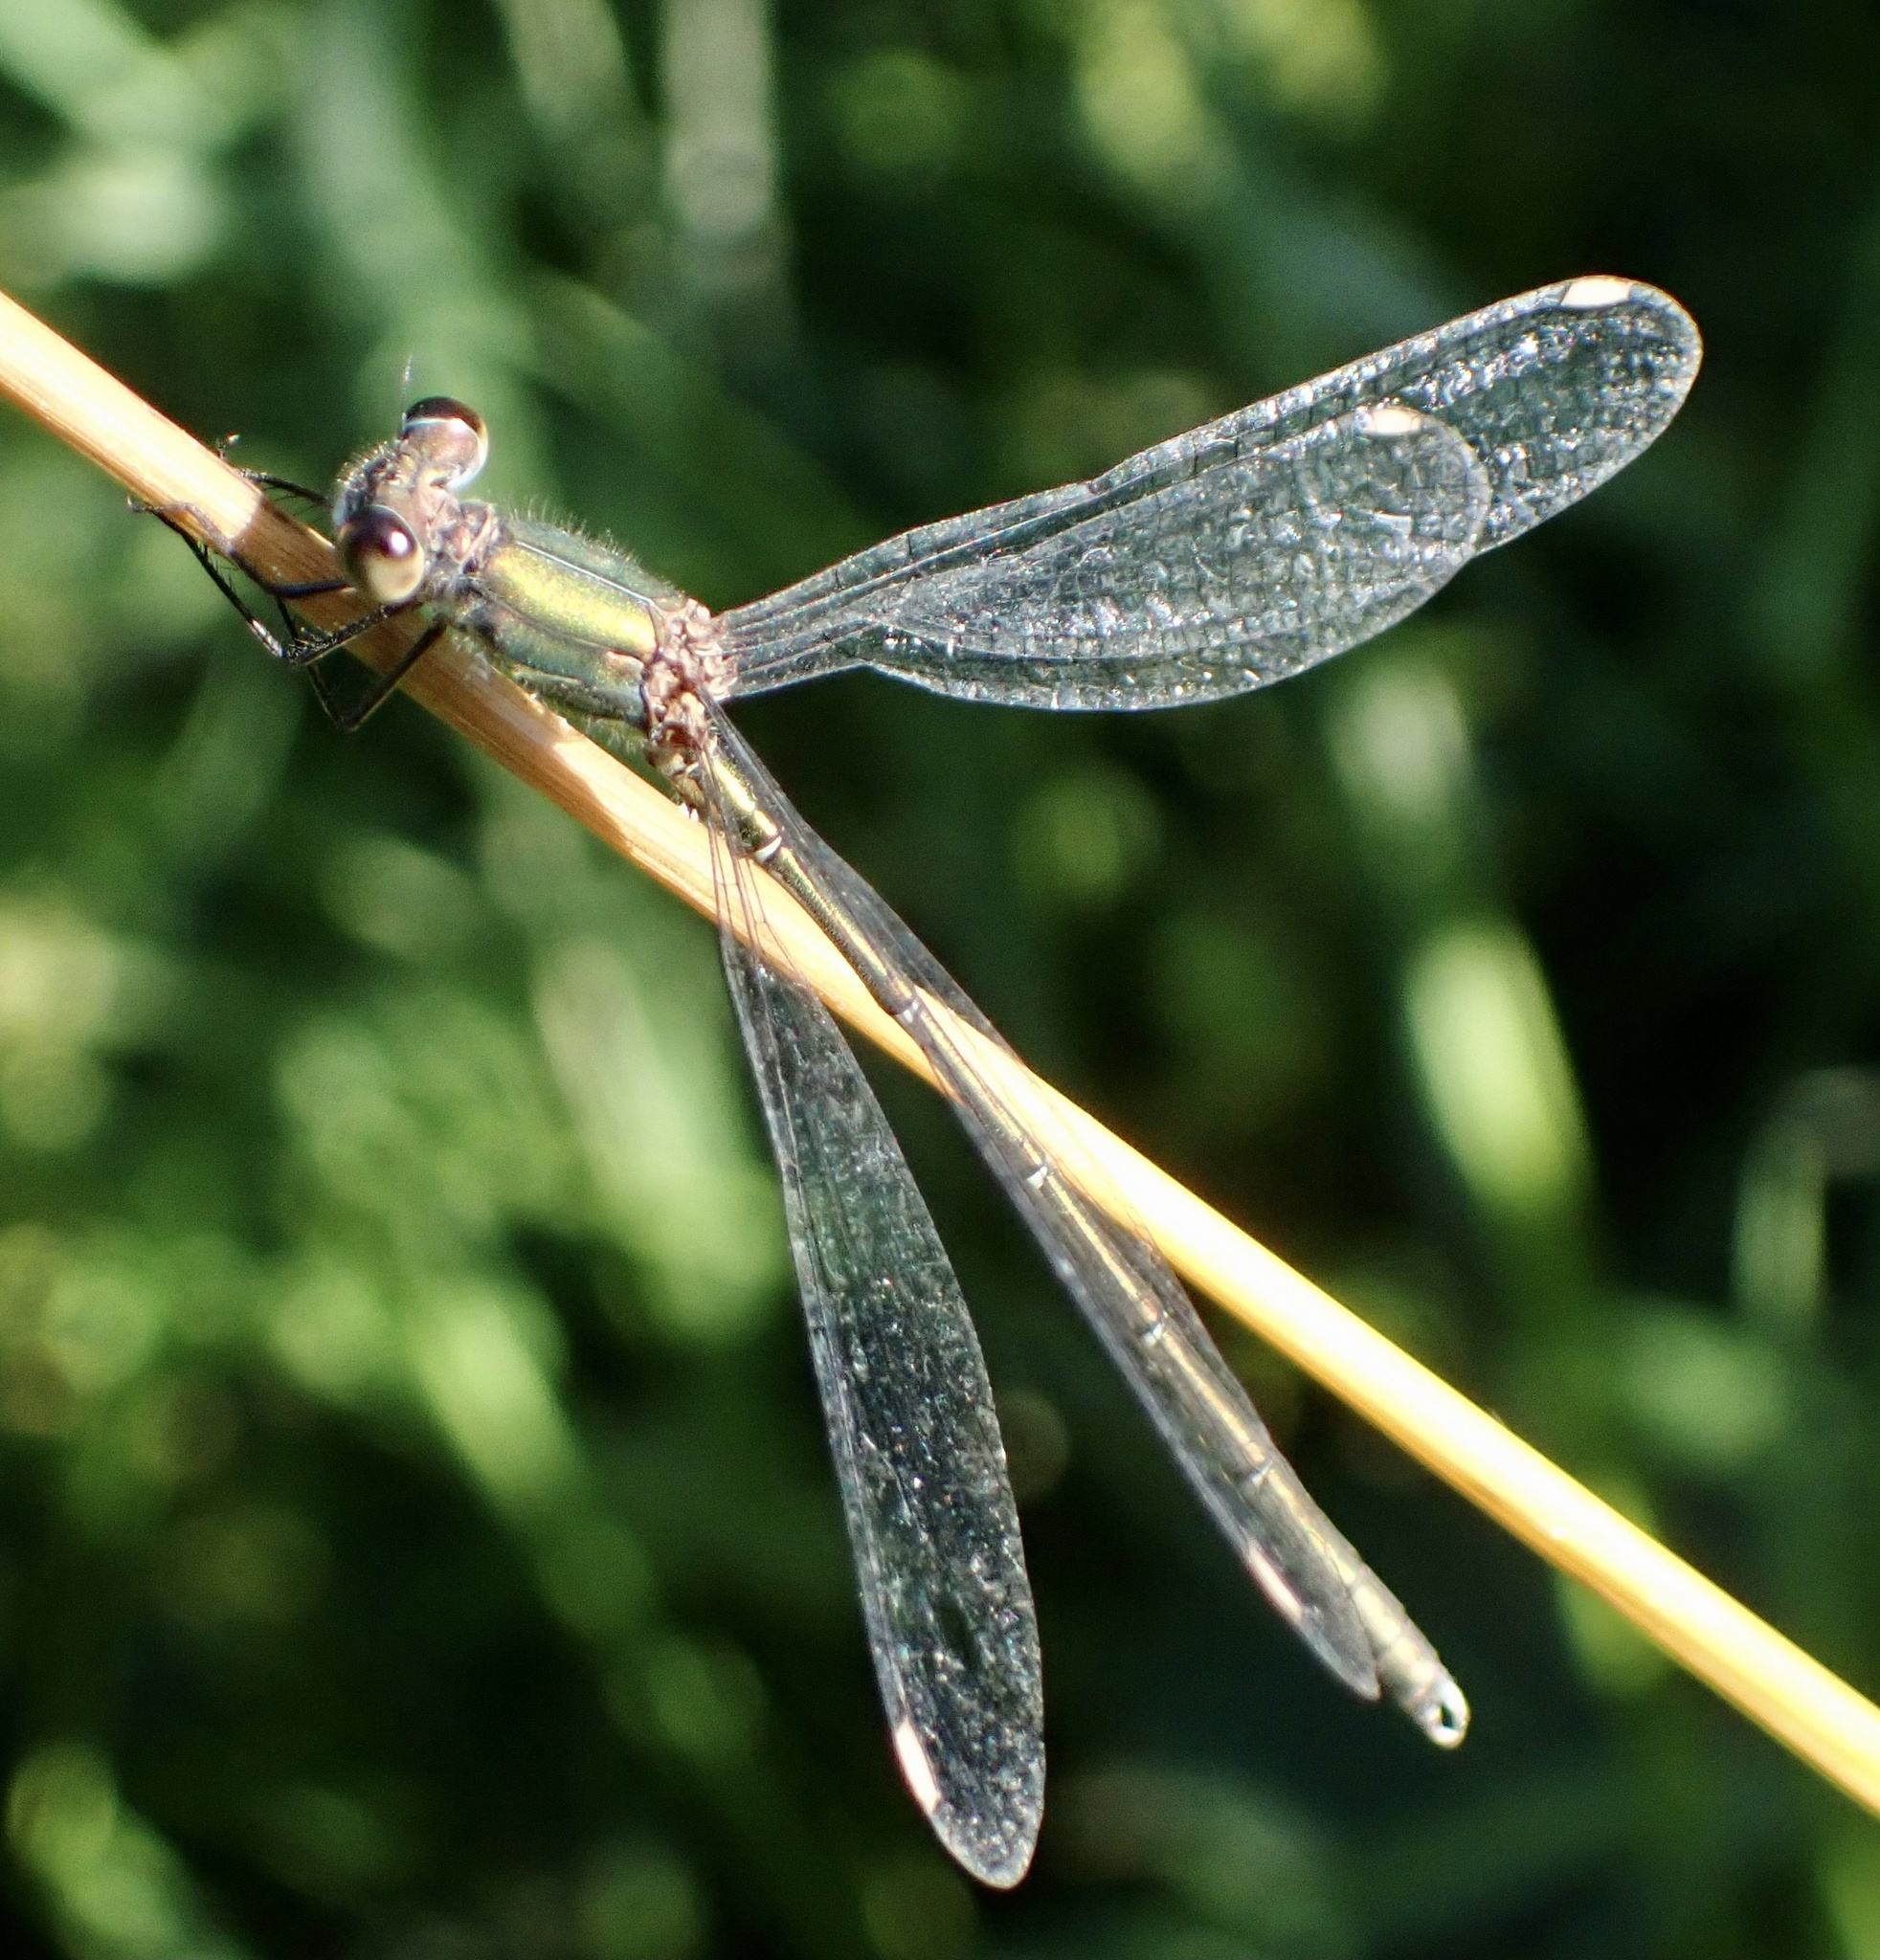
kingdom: Animalia
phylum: Arthropoda
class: Insecta
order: Odonata
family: Lestidae
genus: Chalcolestes
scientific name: Chalcolestes viridis
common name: Green emerald damselfly
